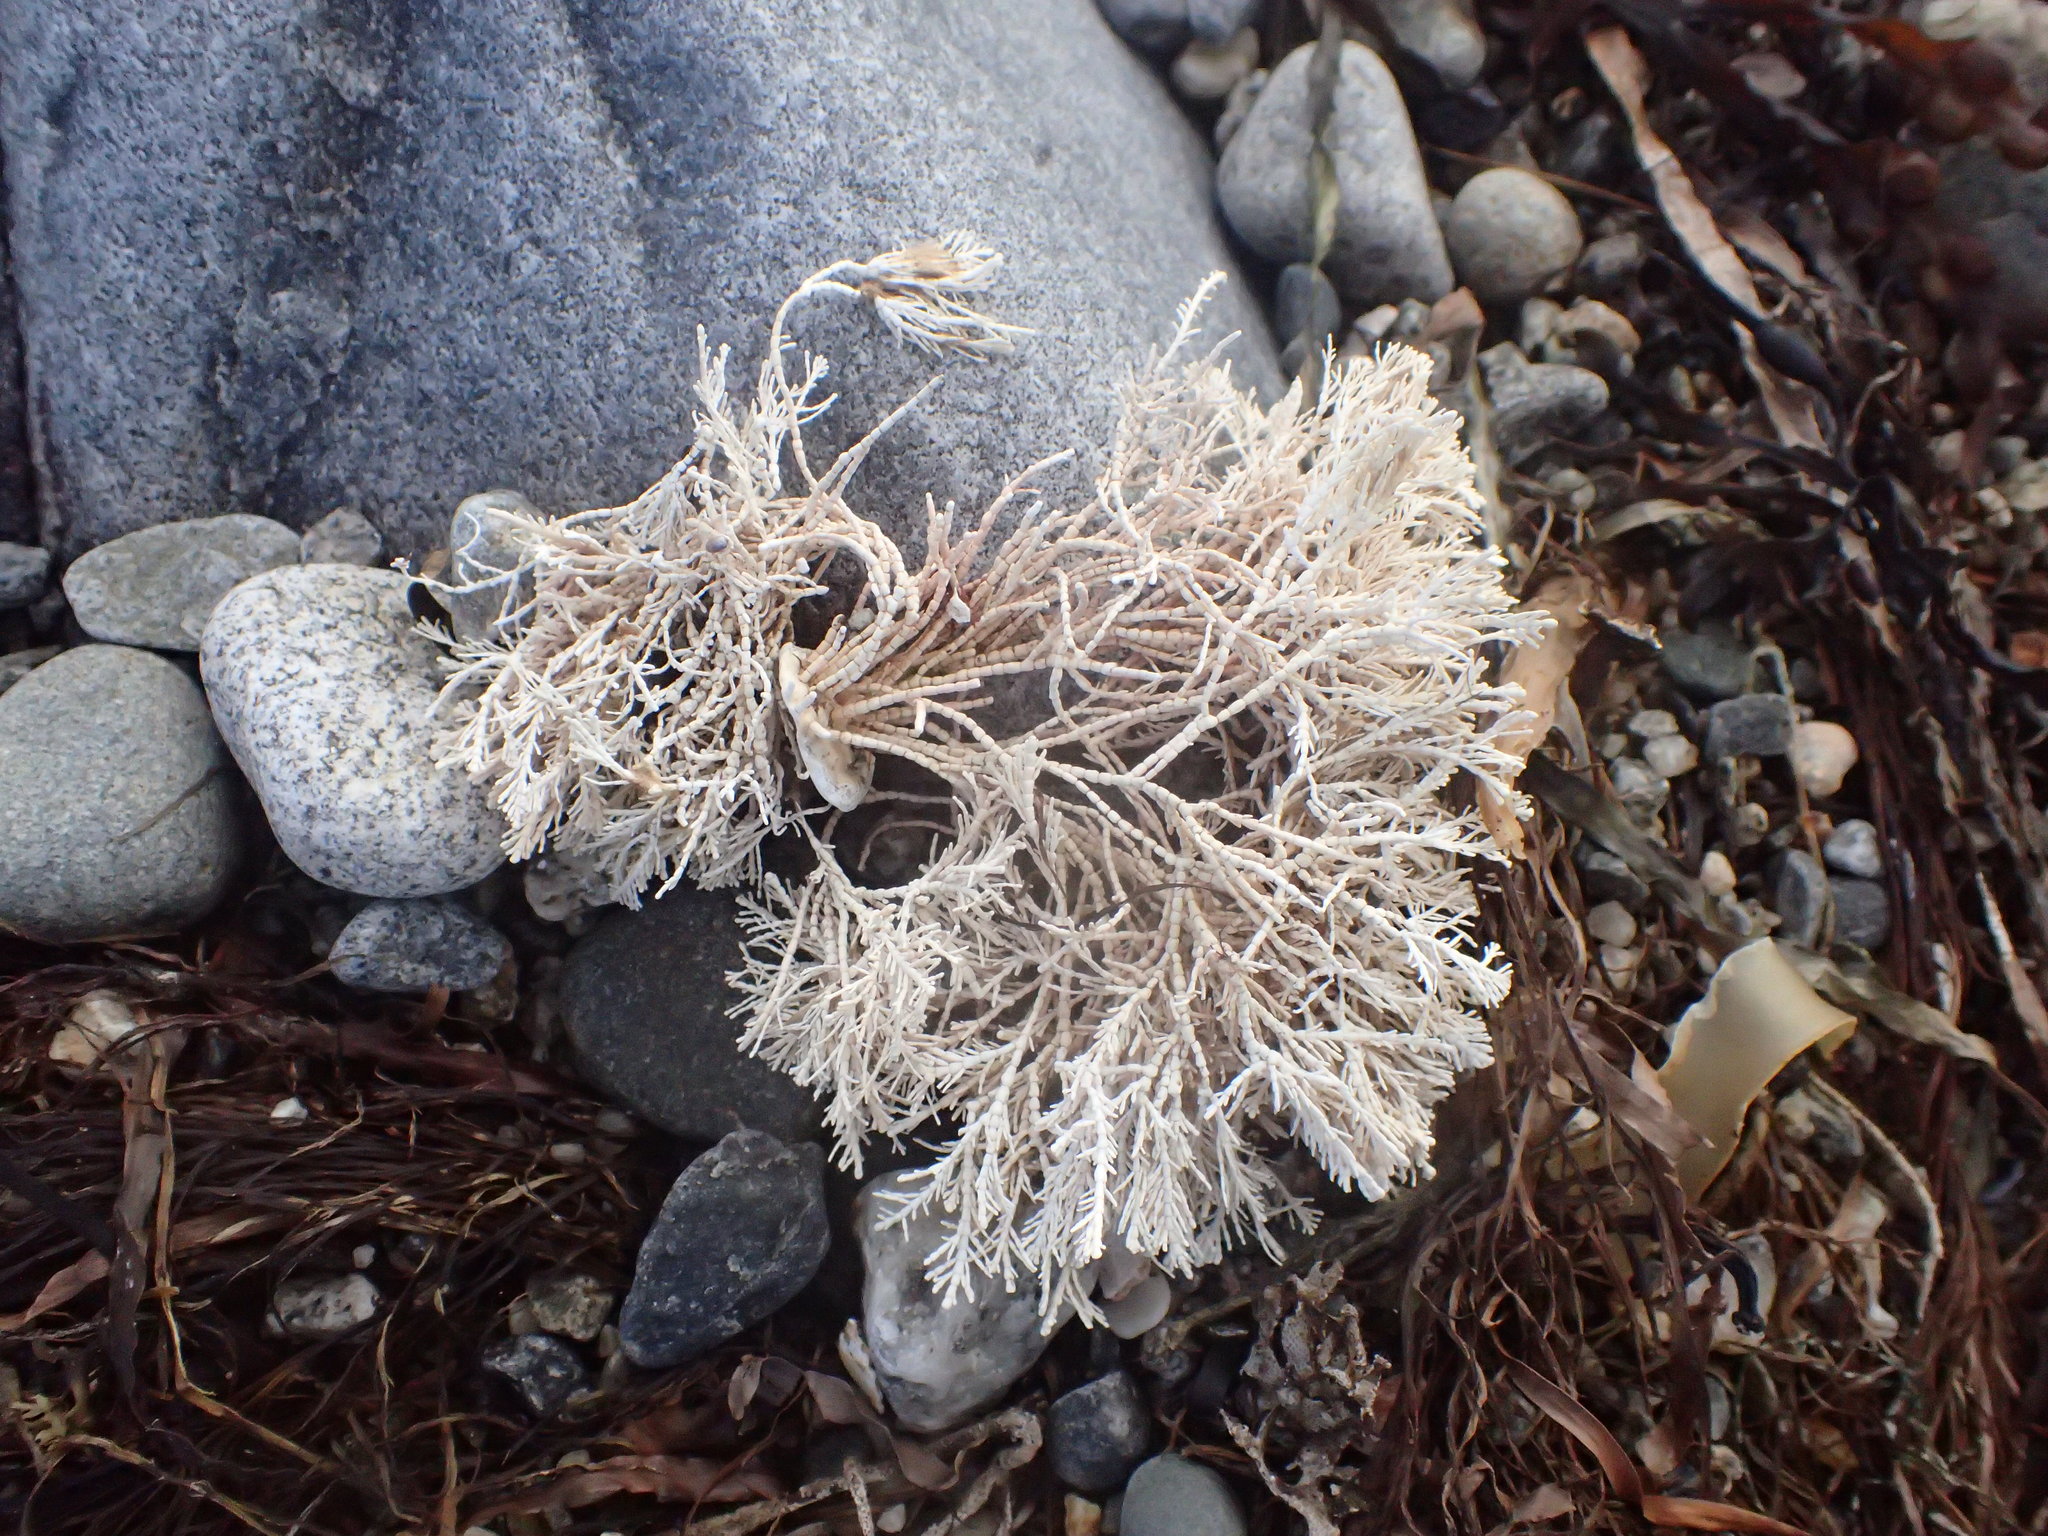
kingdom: Plantae
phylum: Rhodophyta
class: Florideophyceae
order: Corallinales
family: Corallinaceae
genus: Corallina
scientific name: Corallina officinalis
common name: Coral weed
